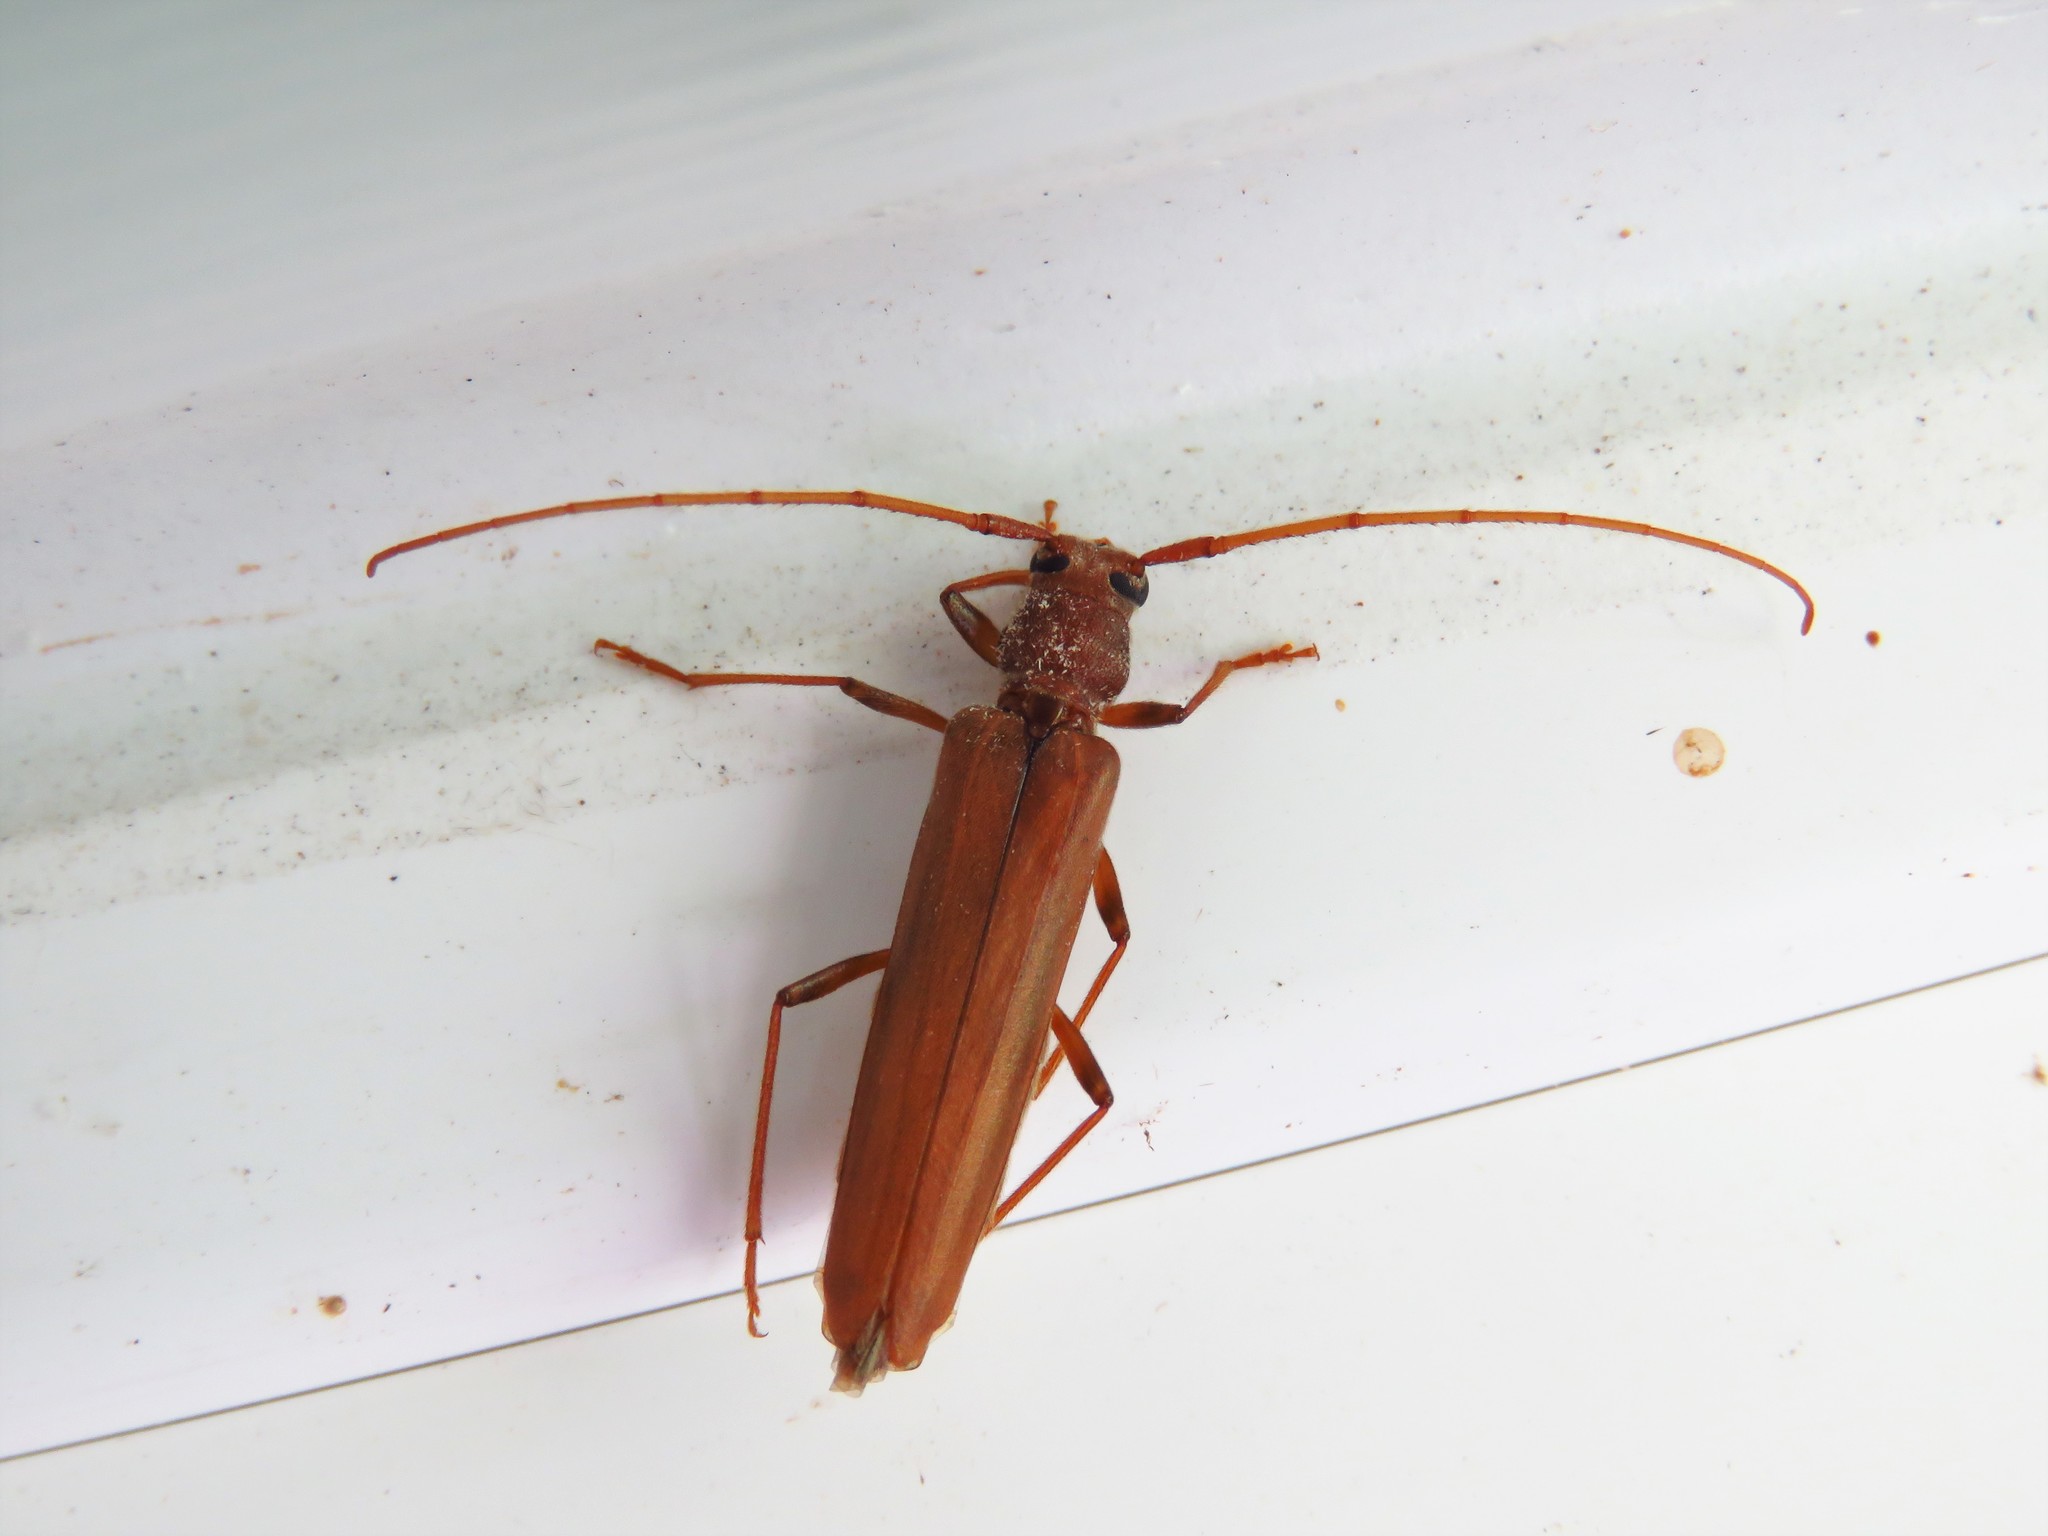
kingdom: Animalia
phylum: Arthropoda
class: Insecta
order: Coleoptera
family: Cerambycidae
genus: Oeme
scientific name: Oeme rigida
